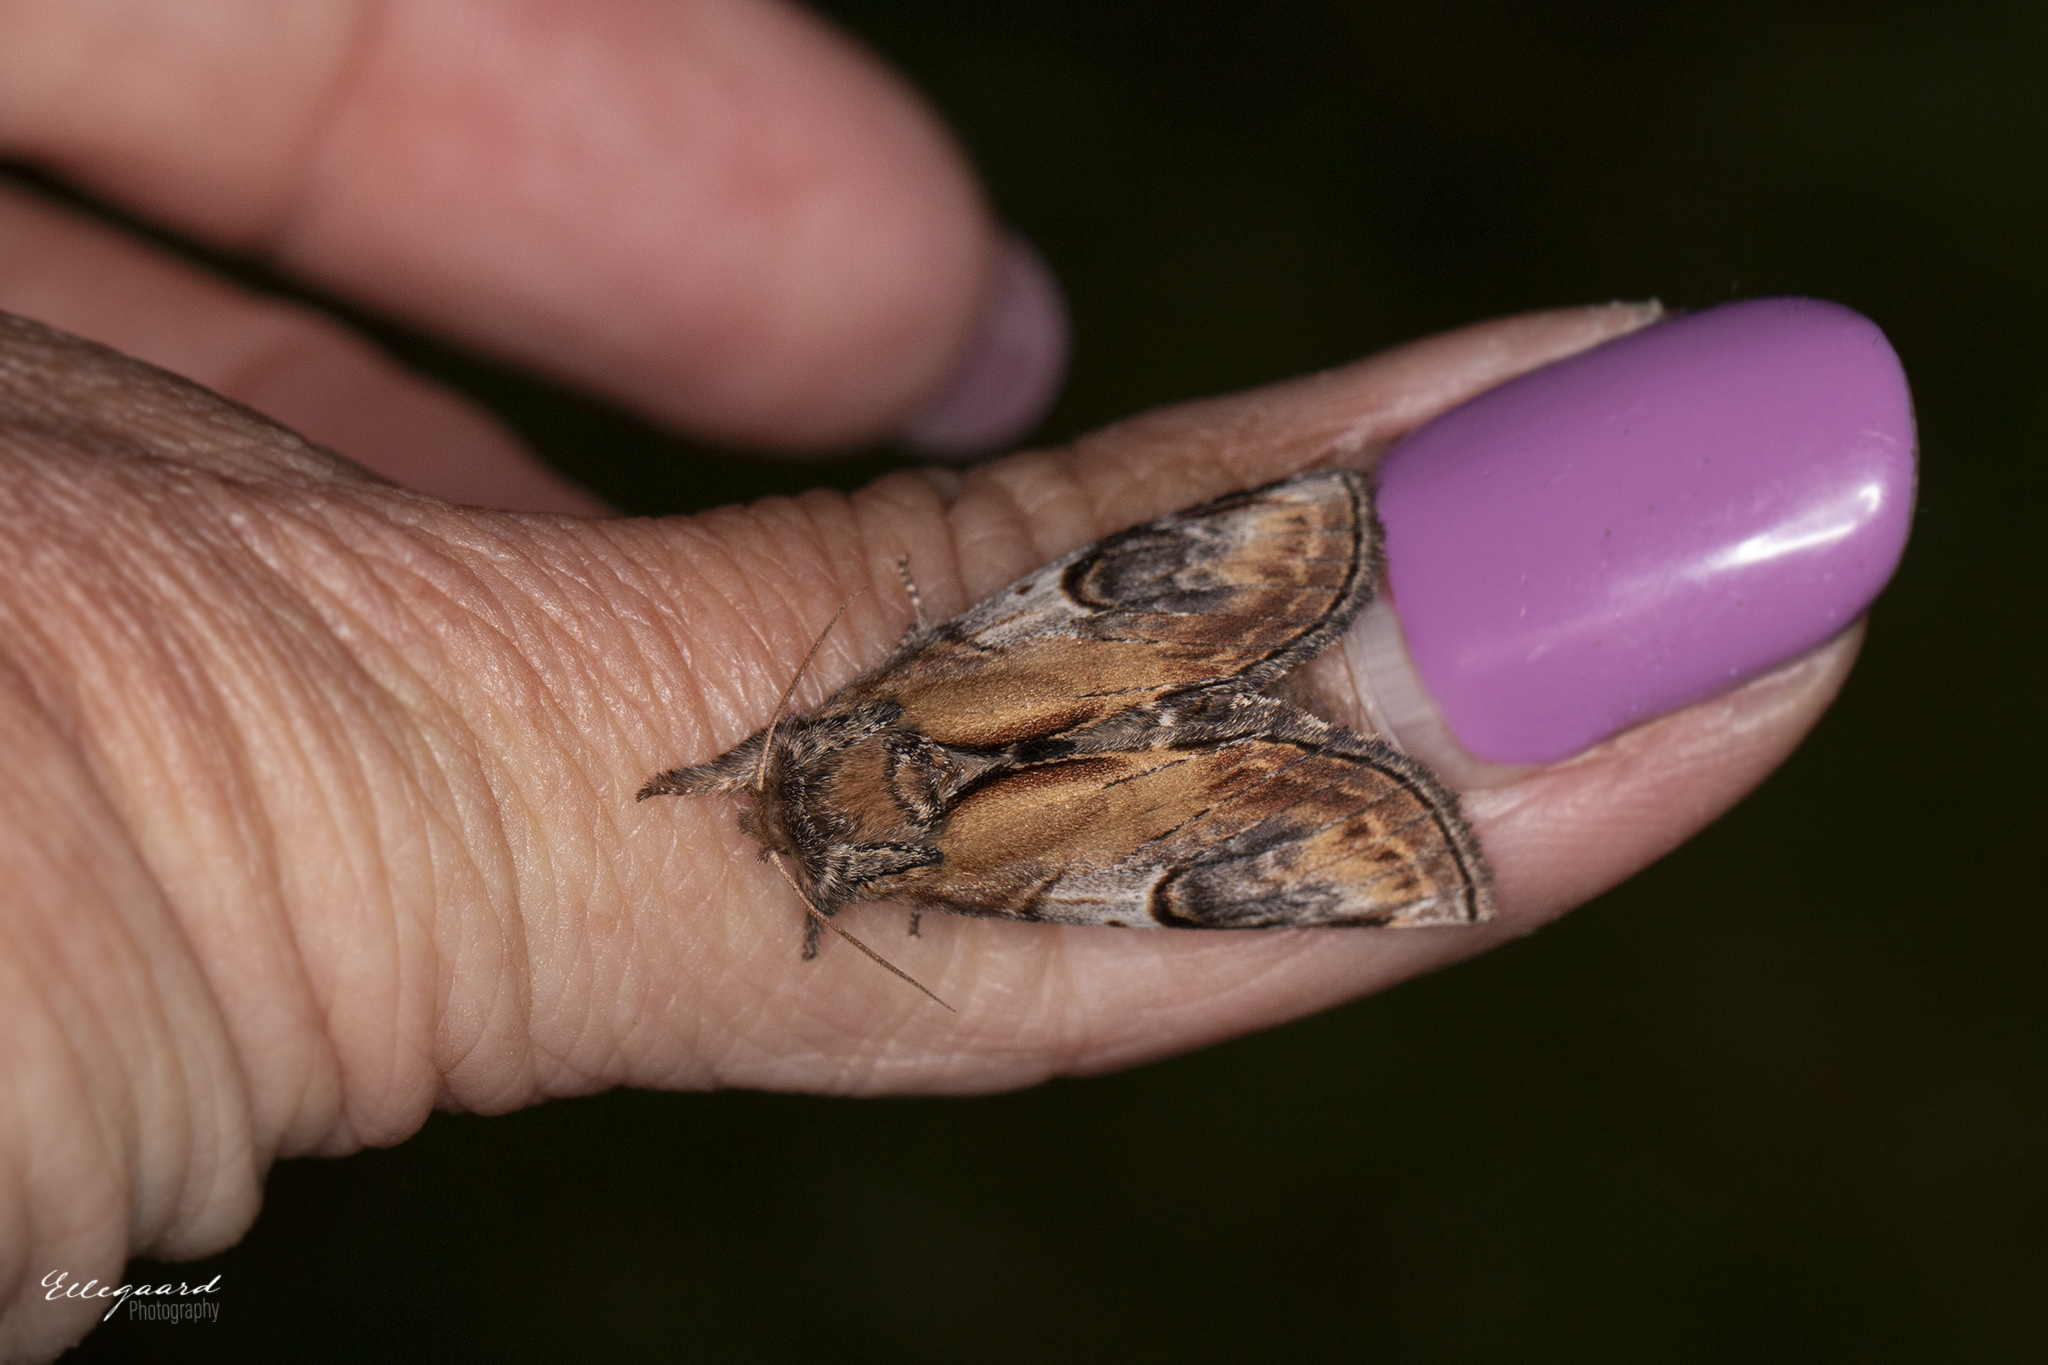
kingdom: Animalia
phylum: Arthropoda
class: Insecta
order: Lepidoptera
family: Notodontidae
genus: Notodonta
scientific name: Notodonta ziczac
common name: Pebble prominent
